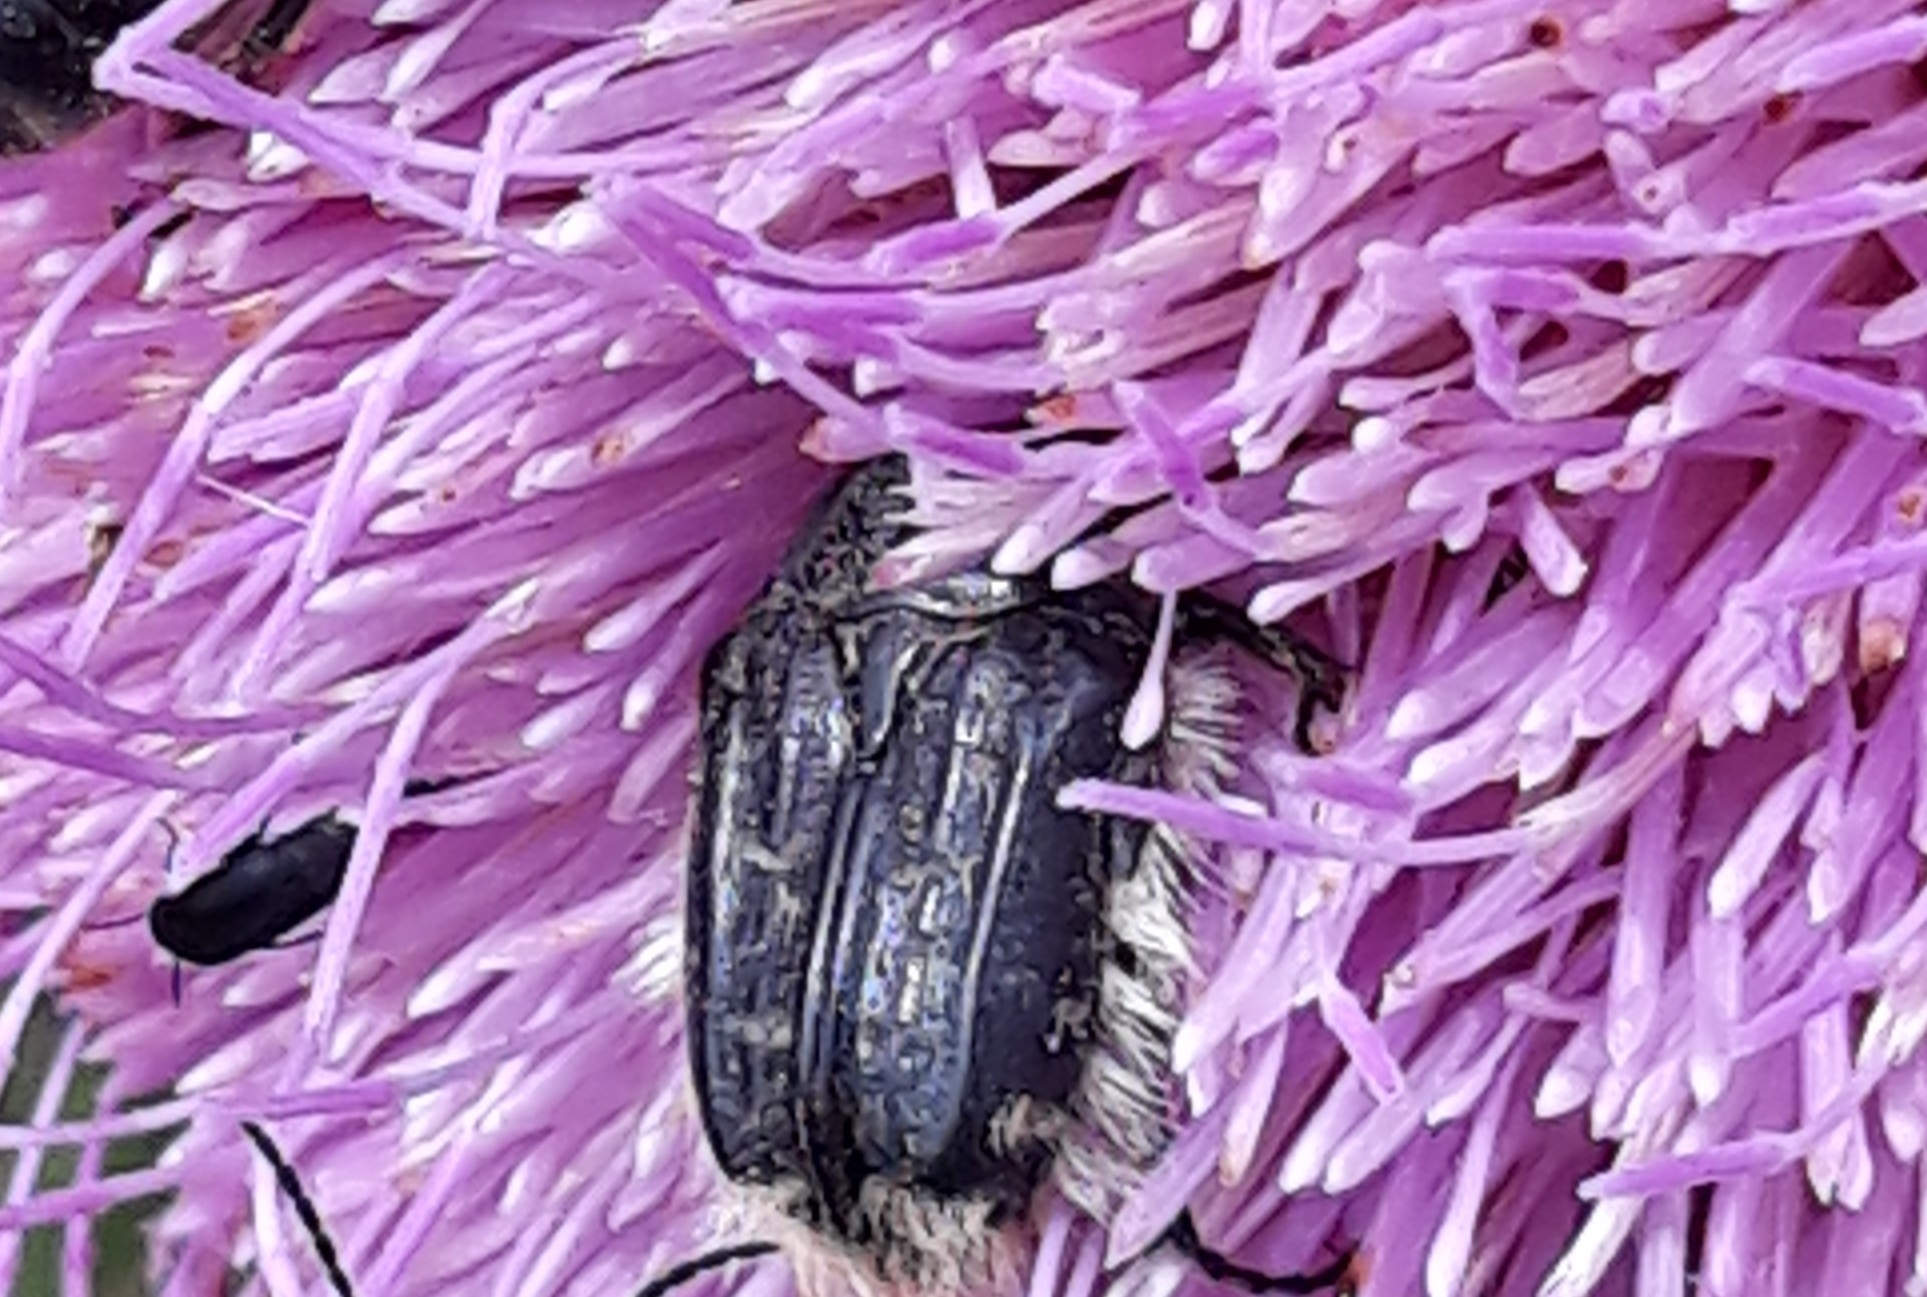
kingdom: Animalia
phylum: Arthropoda
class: Insecta
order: Coleoptera
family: Scarabaeidae
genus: Tropinota
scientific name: Tropinota squalida
